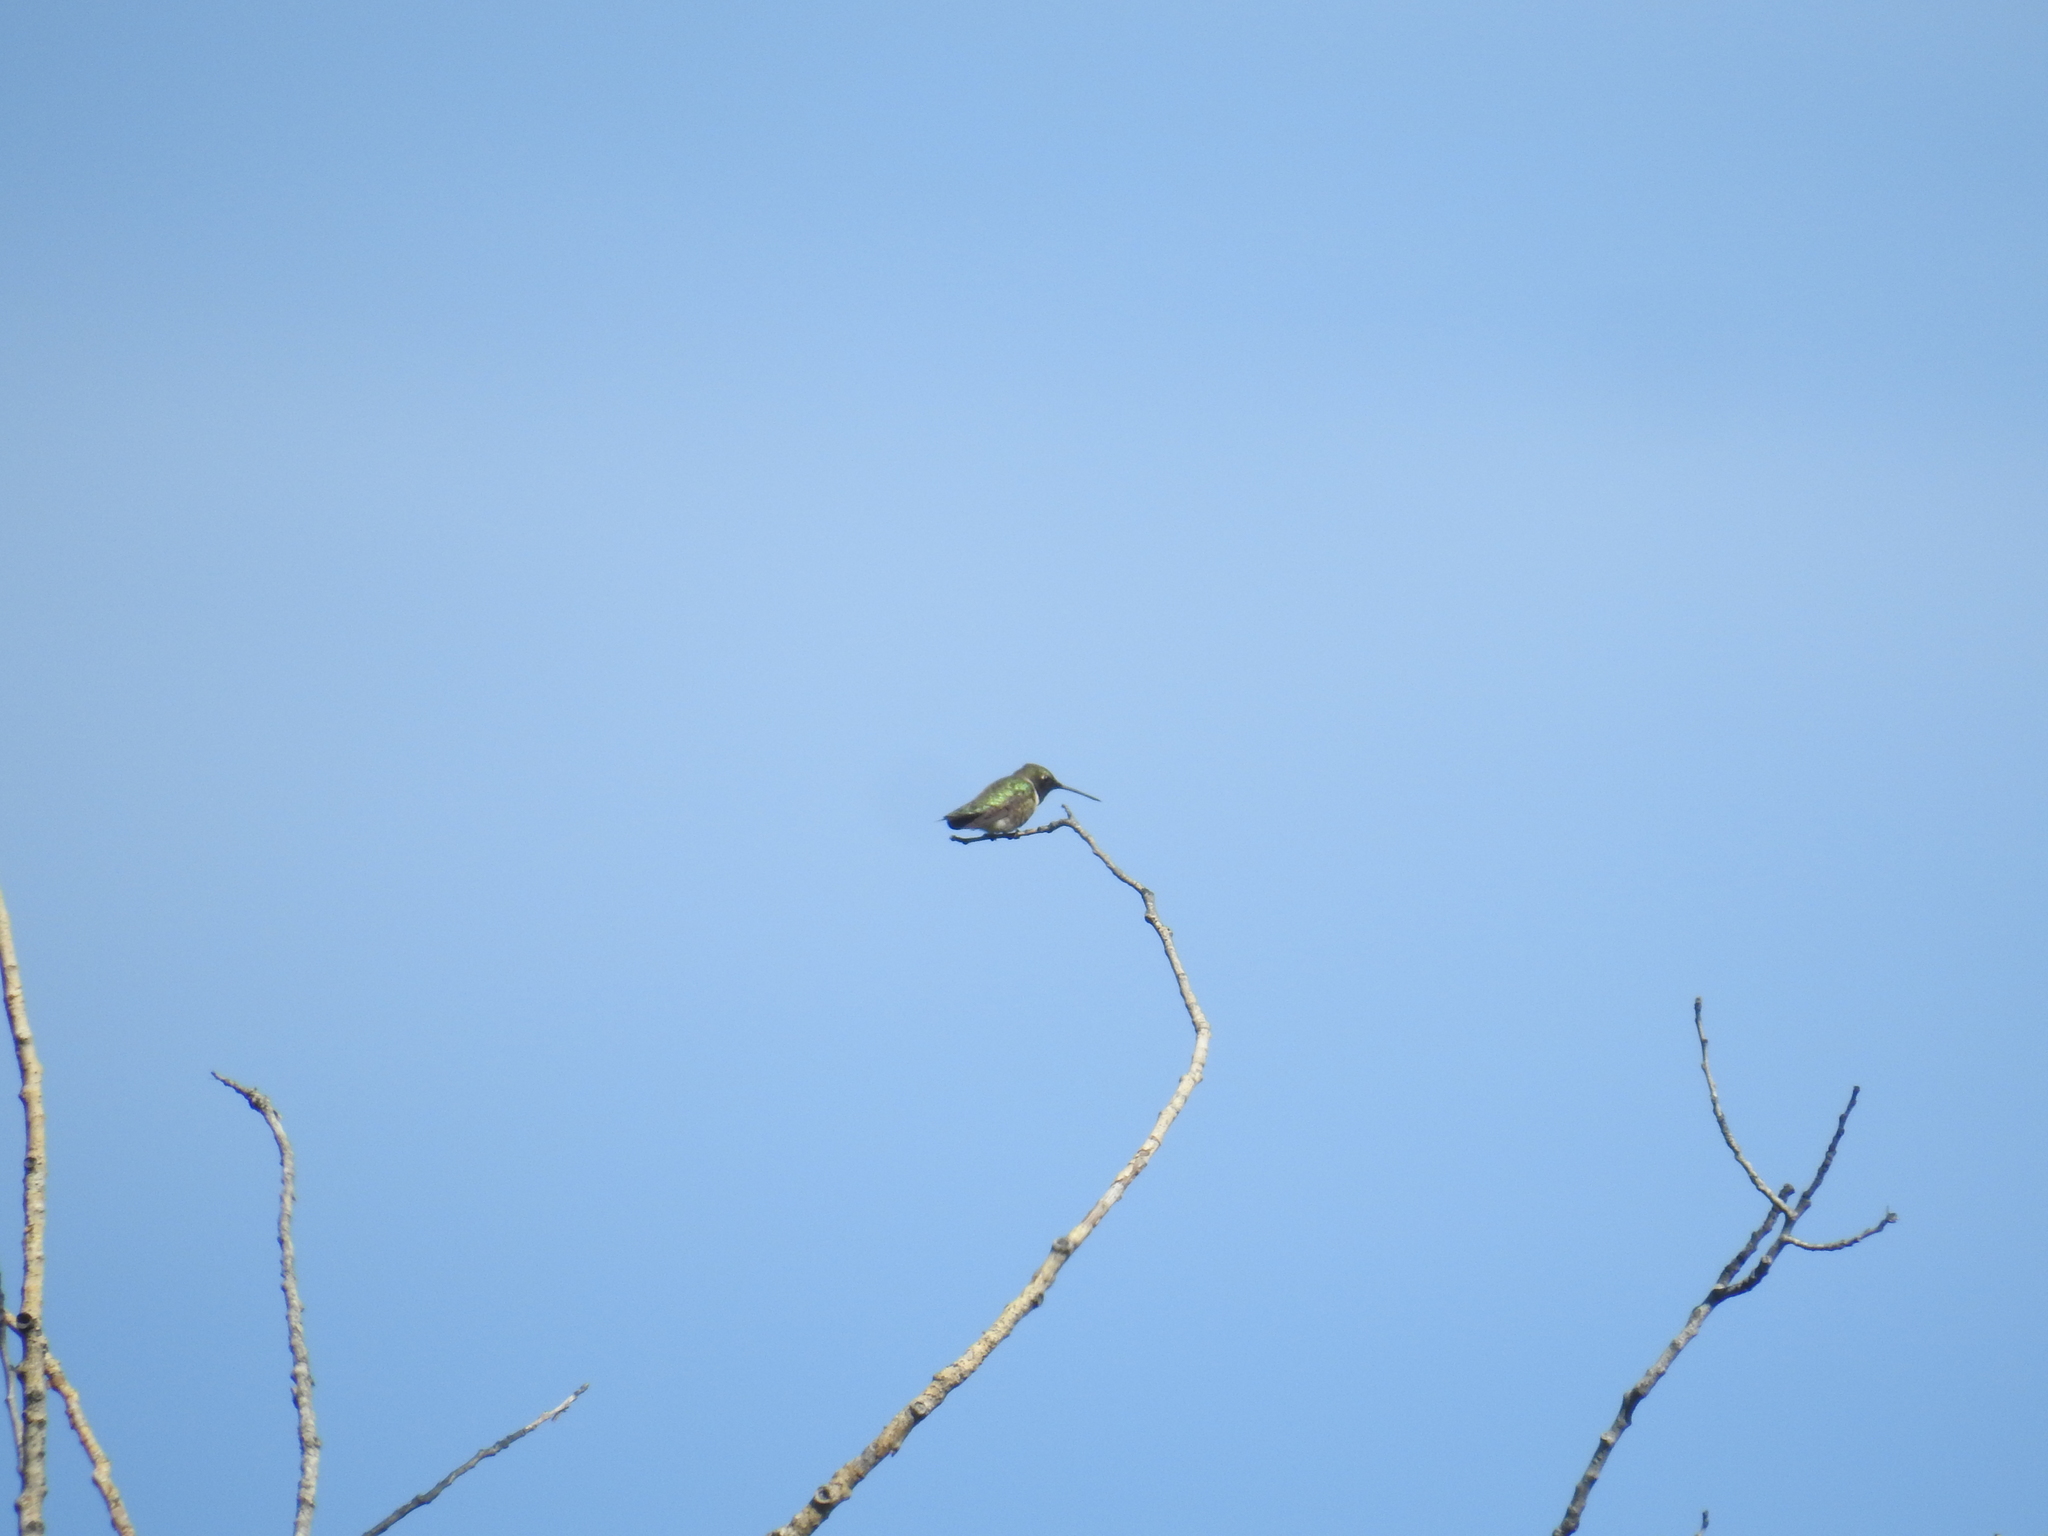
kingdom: Animalia
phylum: Chordata
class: Aves
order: Apodiformes
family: Trochilidae
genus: Archilochus
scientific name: Archilochus alexandri
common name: Black-chinned hummingbird
